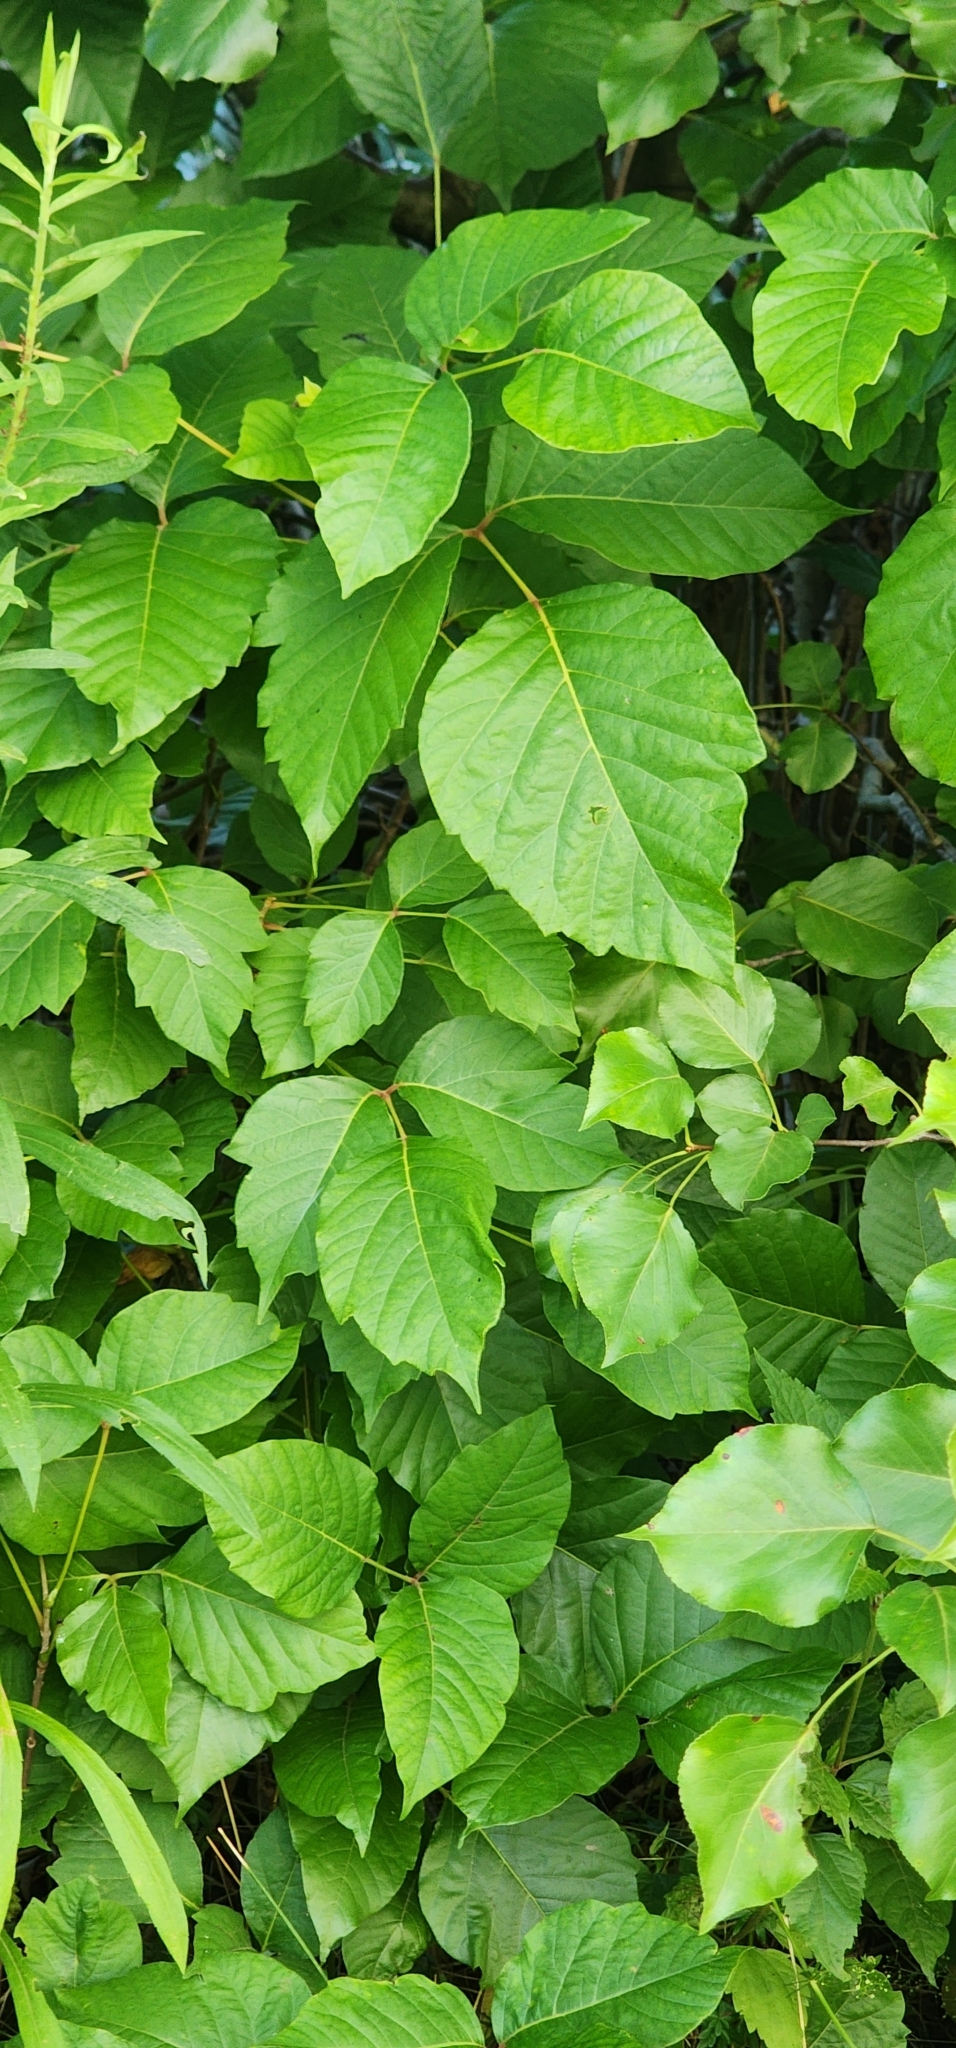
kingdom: Plantae
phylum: Tracheophyta
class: Magnoliopsida
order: Sapindales
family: Anacardiaceae
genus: Toxicodendron
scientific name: Toxicodendron radicans
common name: Poison ivy
